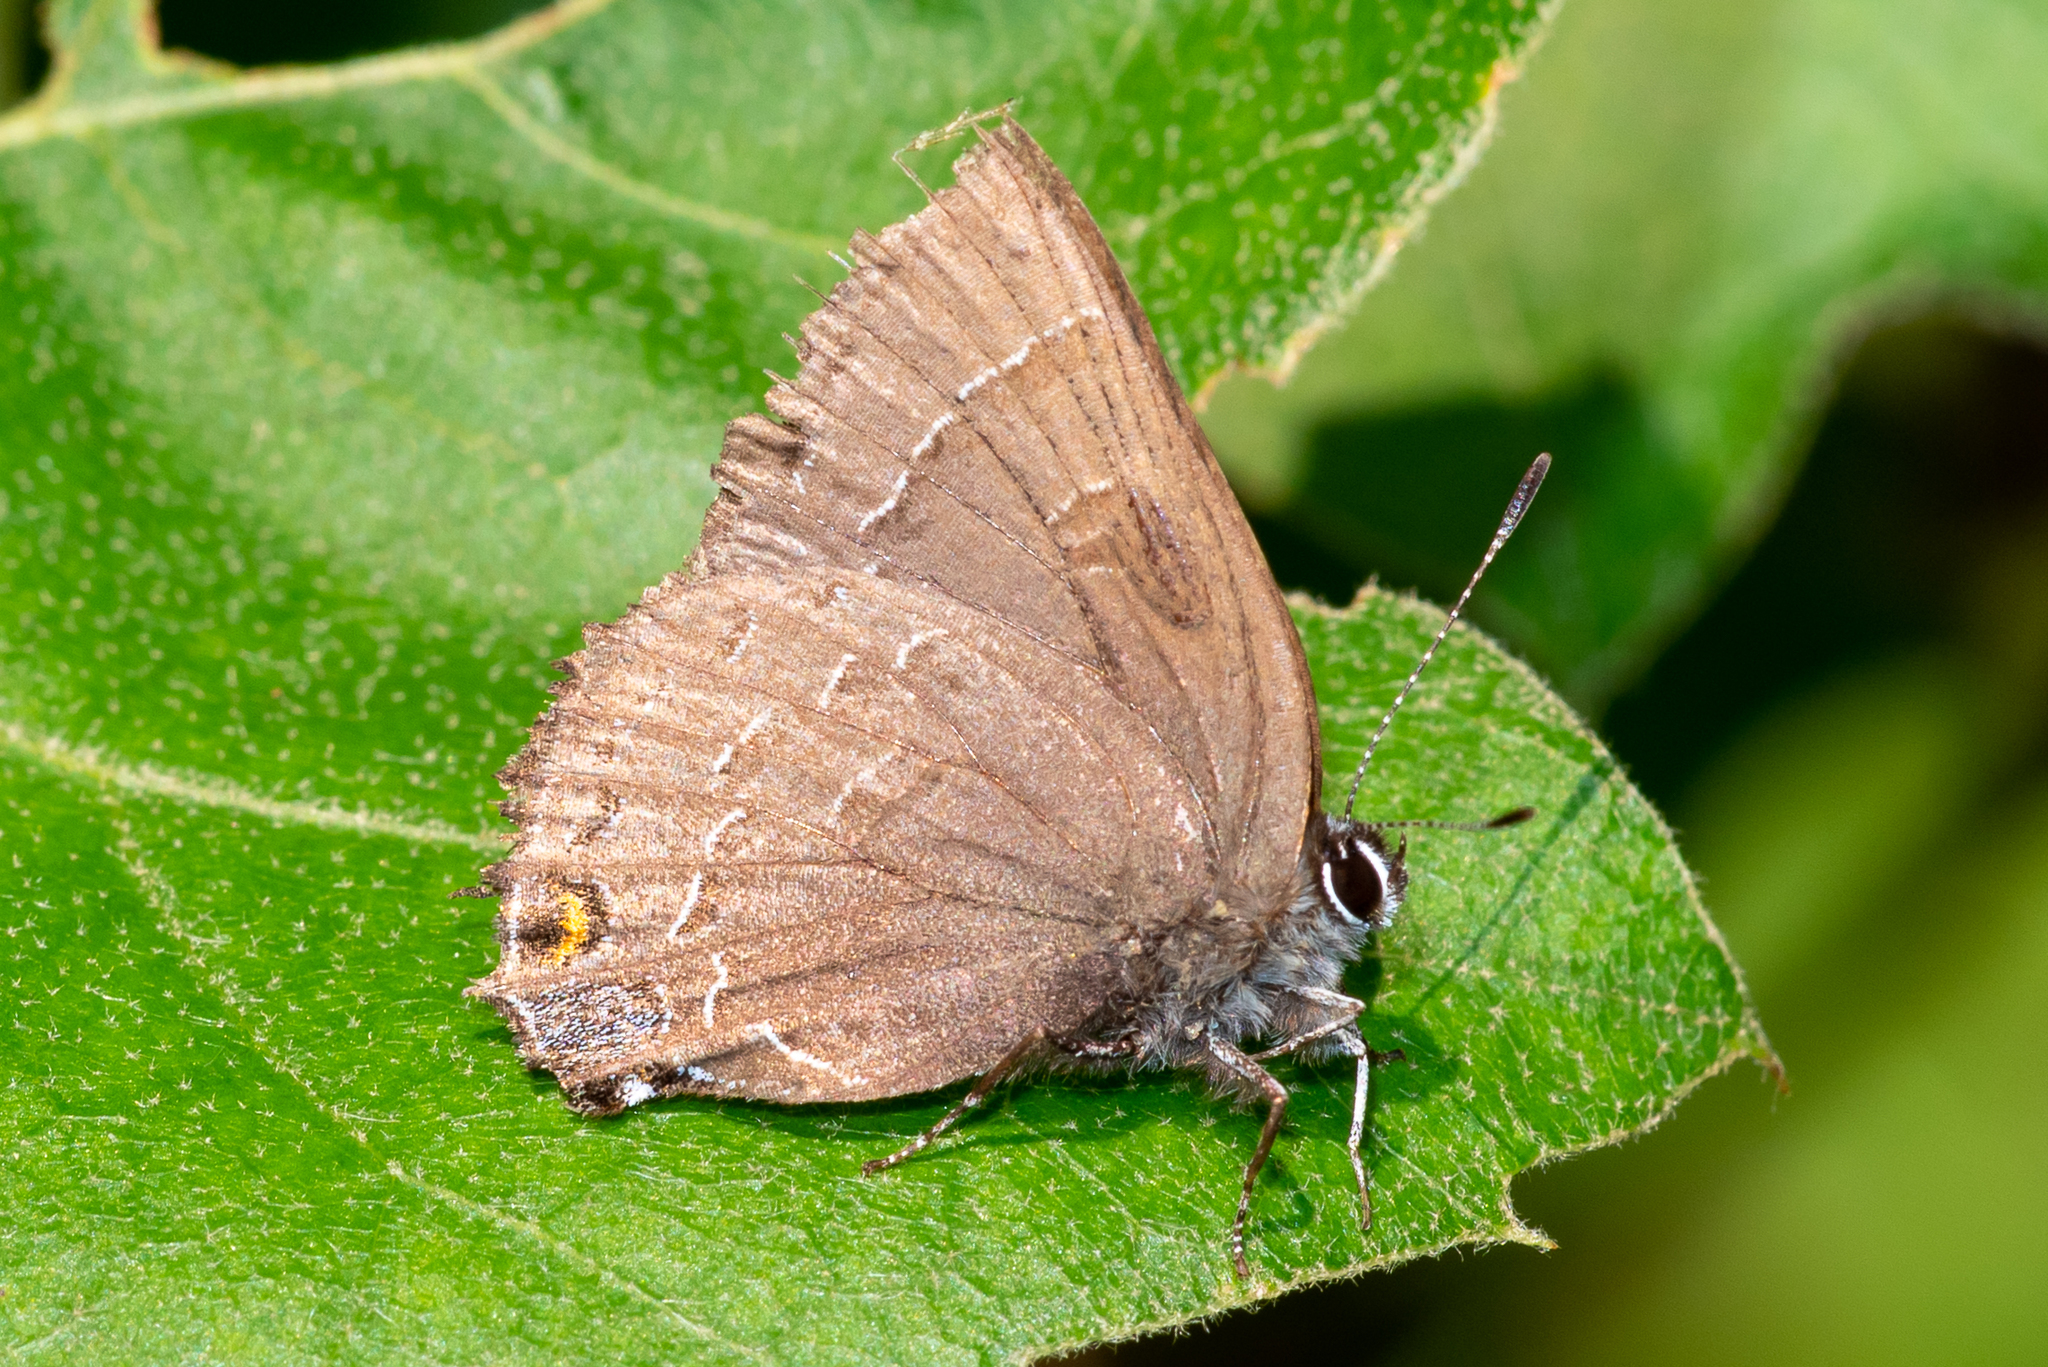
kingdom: Animalia
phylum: Arthropoda
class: Insecta
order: Lepidoptera
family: Lycaenidae
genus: Satyrium
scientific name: Satyrium calanus
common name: Banded hairstreak
